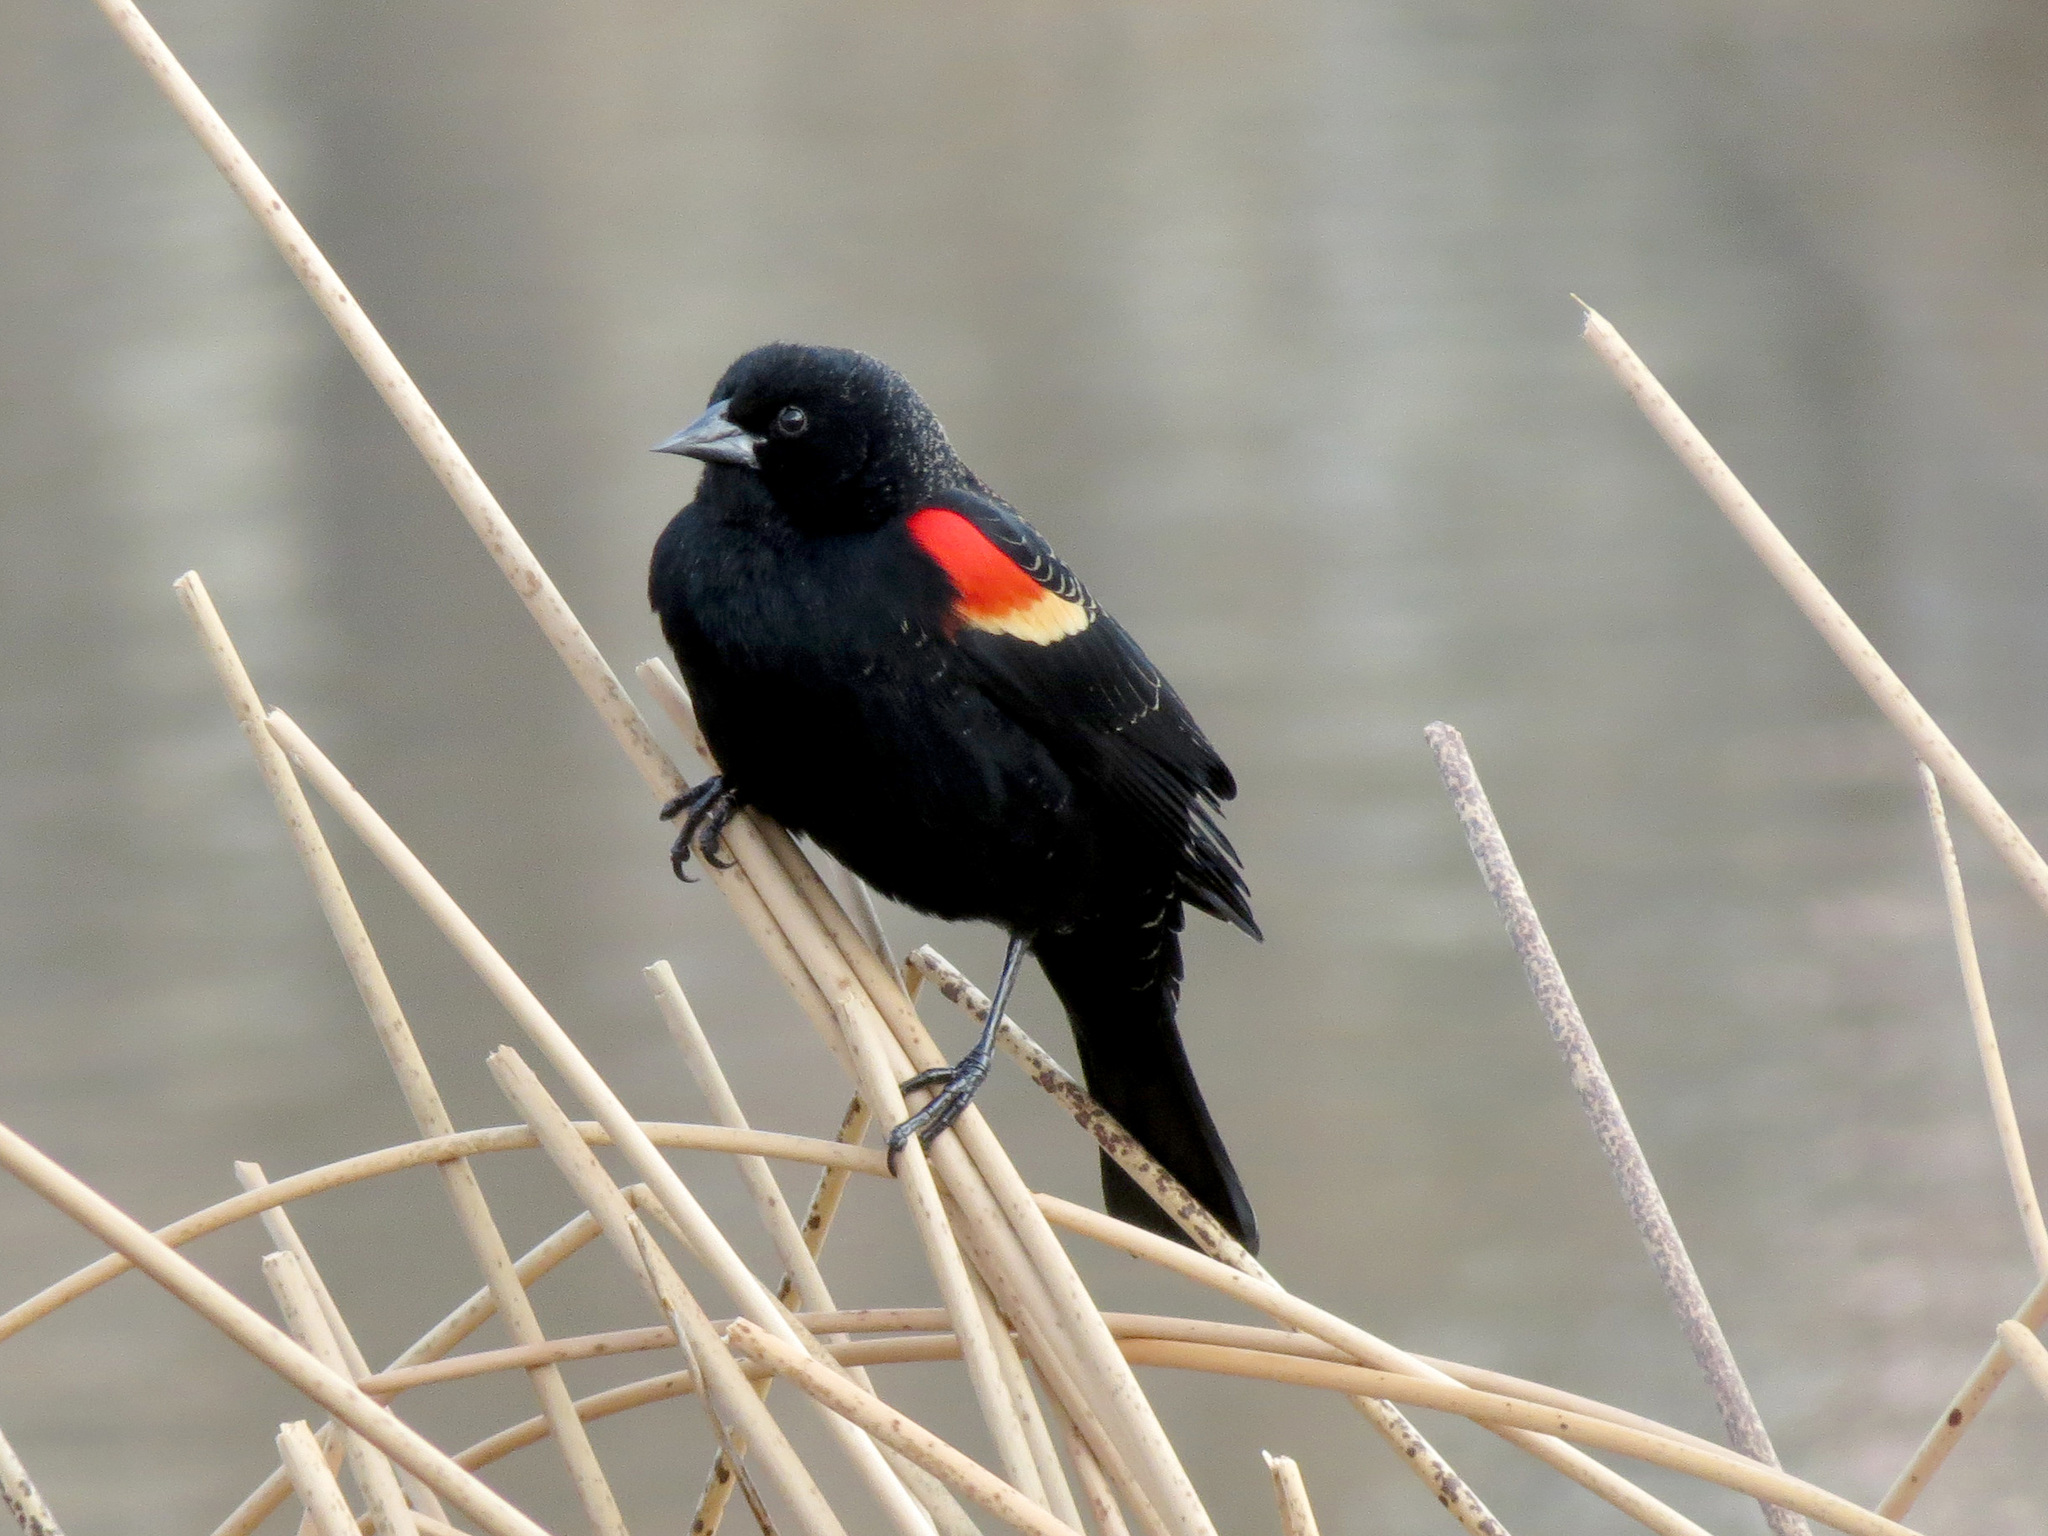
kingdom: Animalia
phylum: Chordata
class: Aves
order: Passeriformes
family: Icteridae
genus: Agelaius
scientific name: Agelaius phoeniceus
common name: Red-winged blackbird
